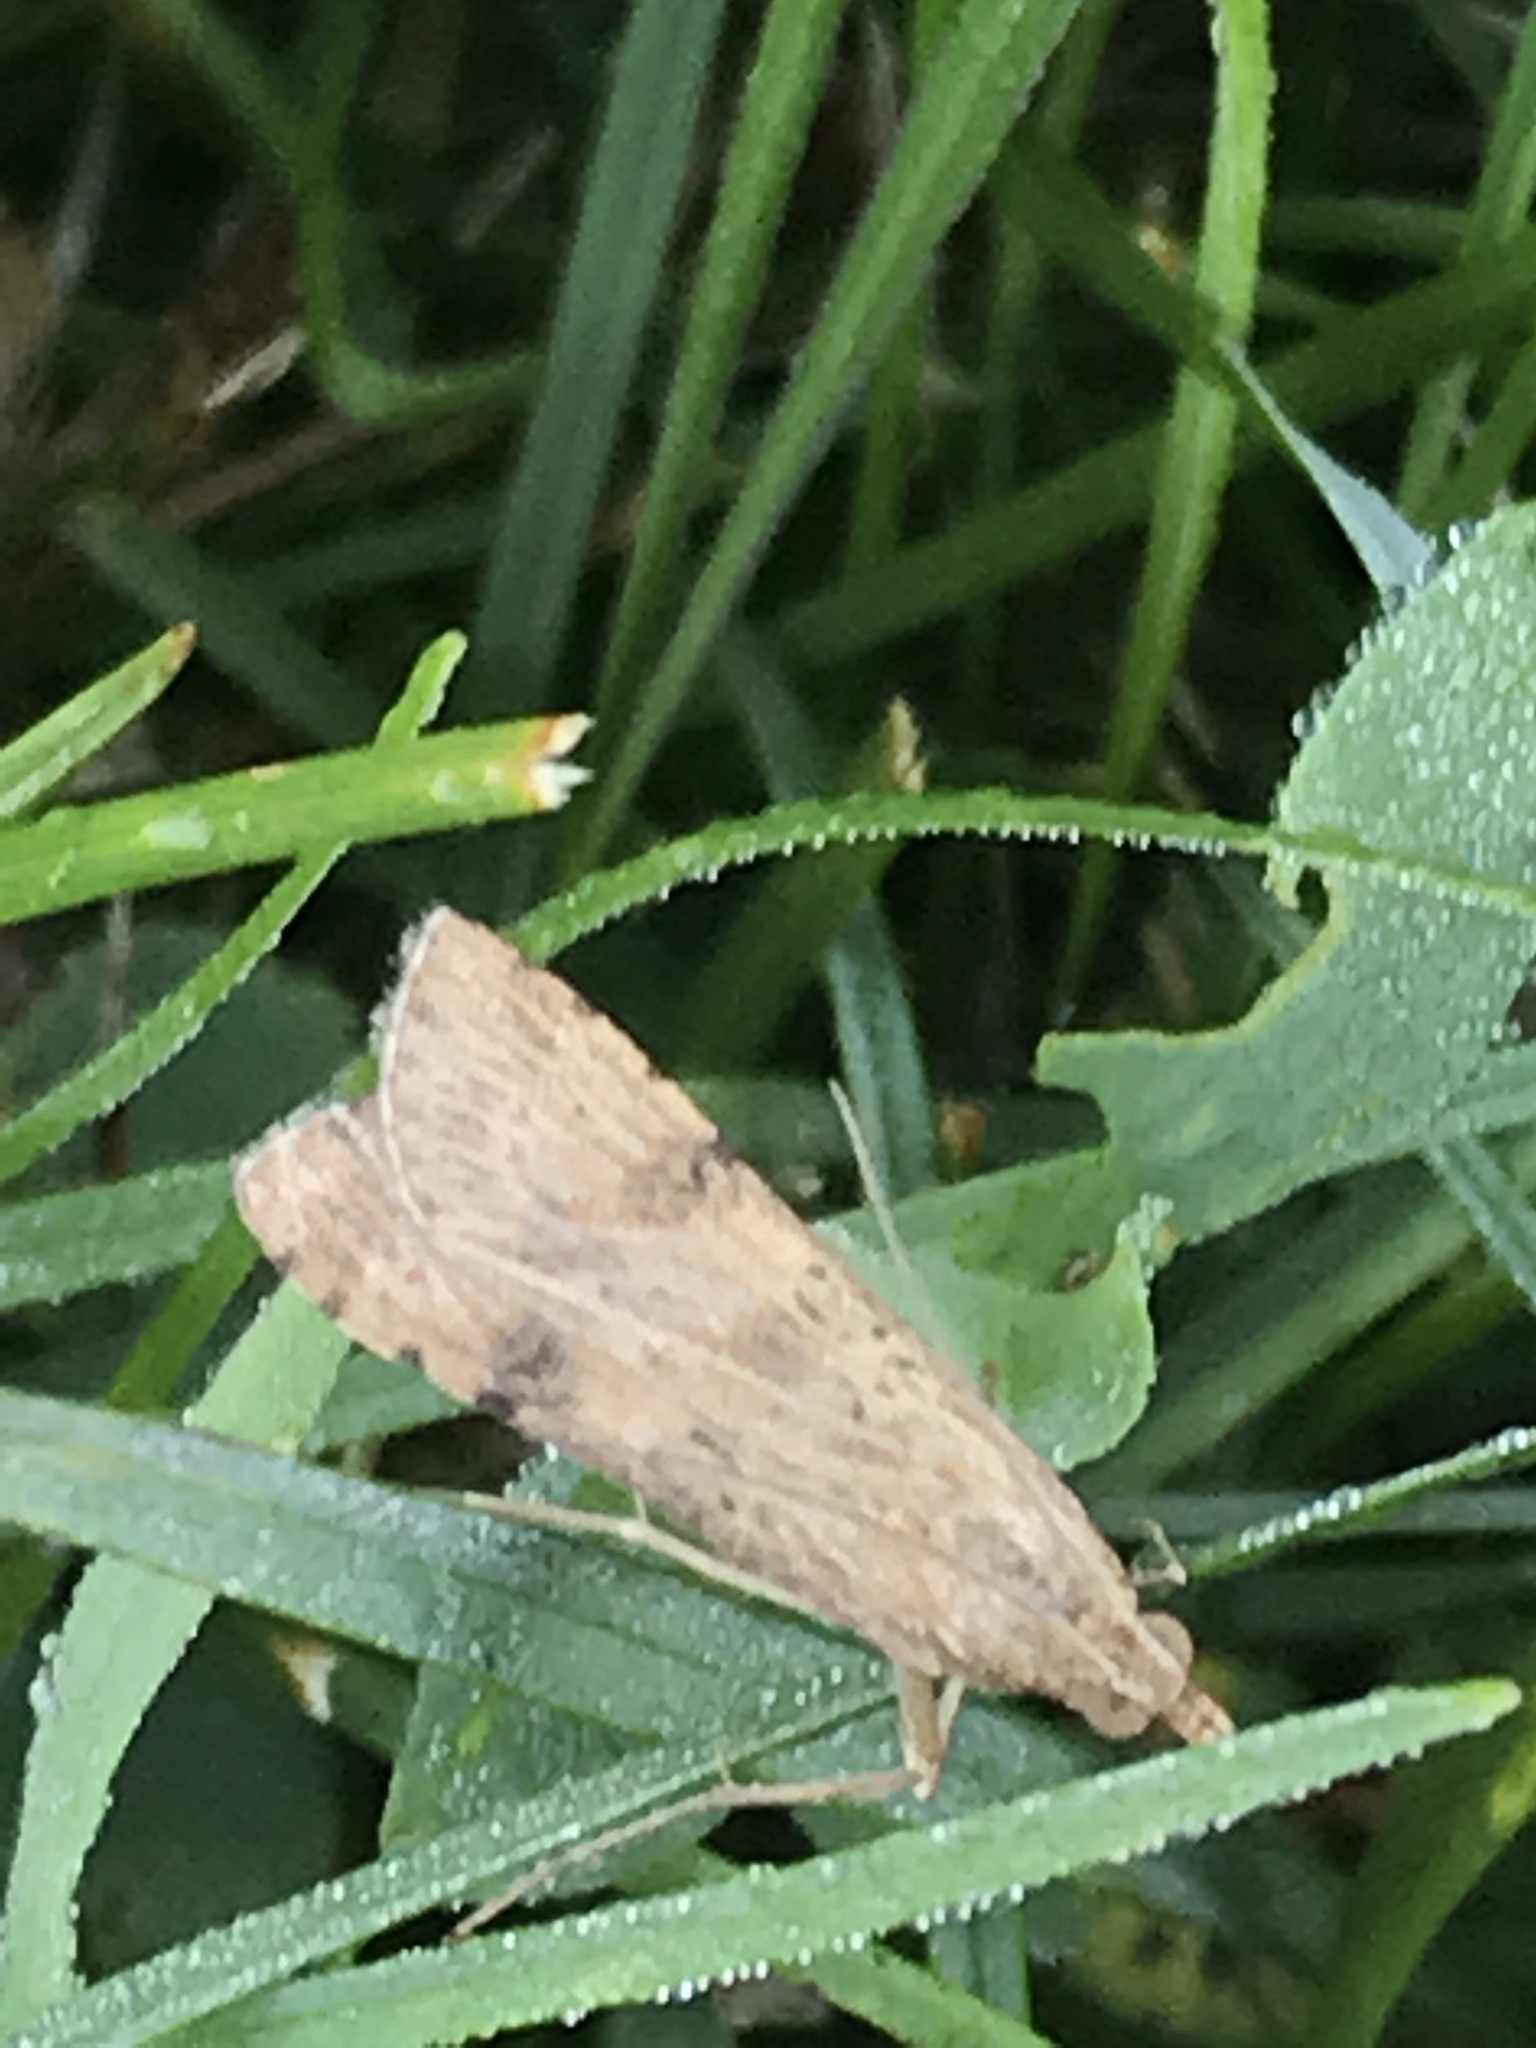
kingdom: Animalia
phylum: Arthropoda
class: Insecta
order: Lepidoptera
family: Crambidae
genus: Nomophila
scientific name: Nomophila nearctica
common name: American rush veneer
